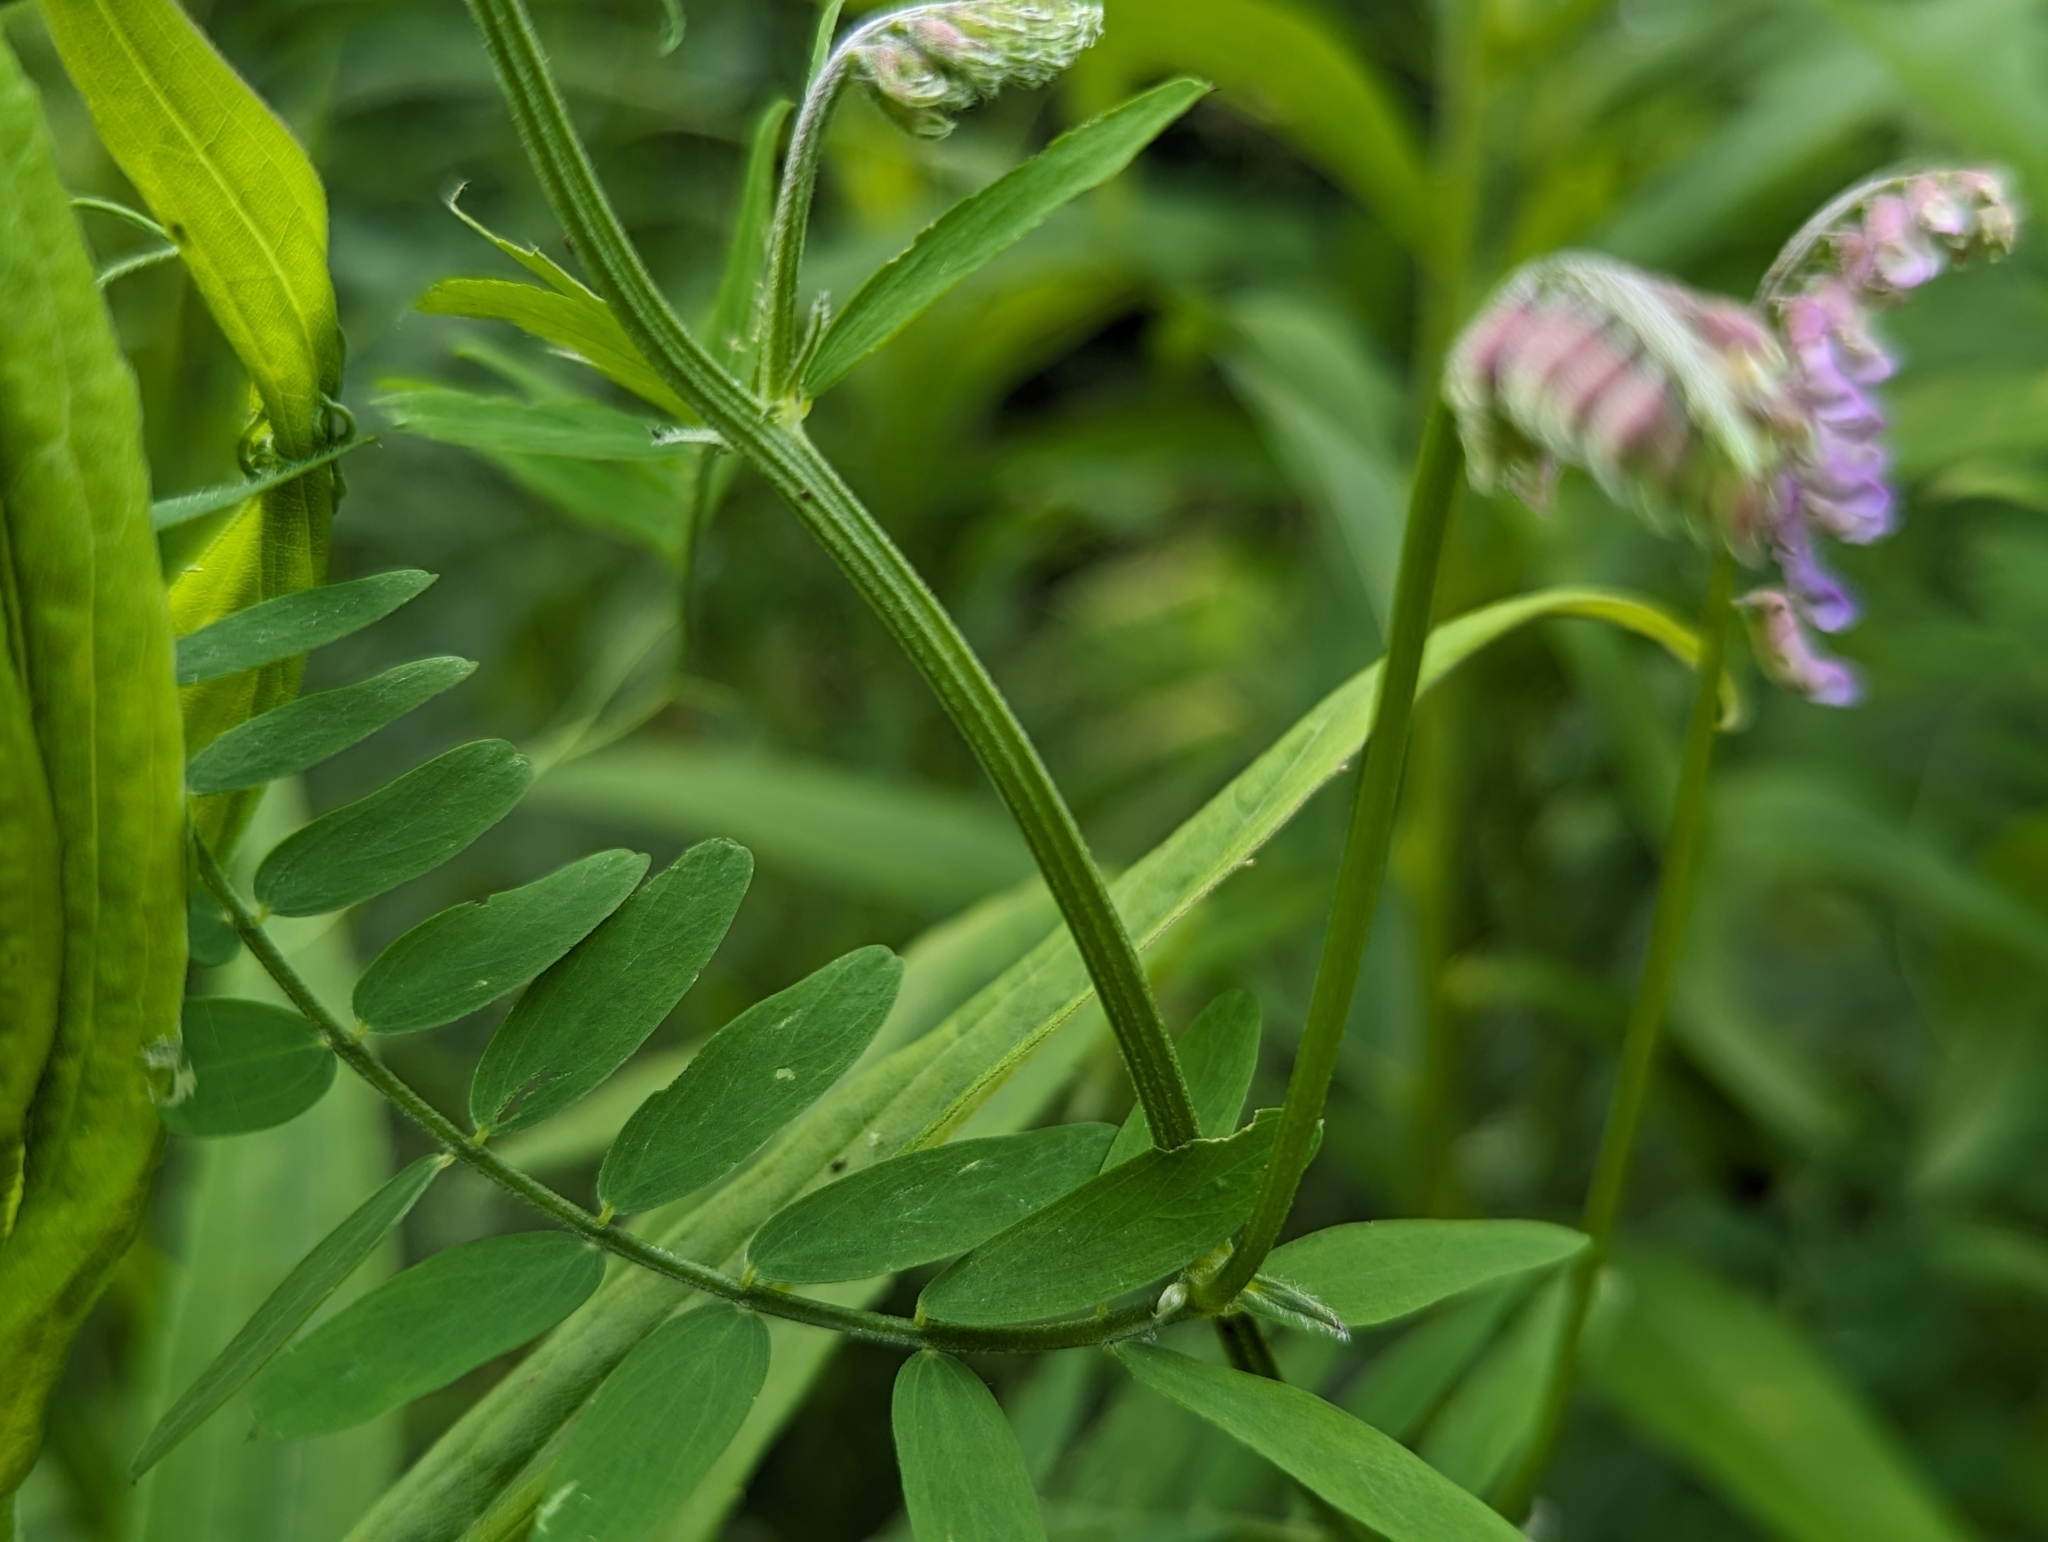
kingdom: Plantae
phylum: Tracheophyta
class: Magnoliopsida
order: Fabales
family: Fabaceae
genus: Vicia
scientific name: Vicia cracca
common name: Bird vetch
